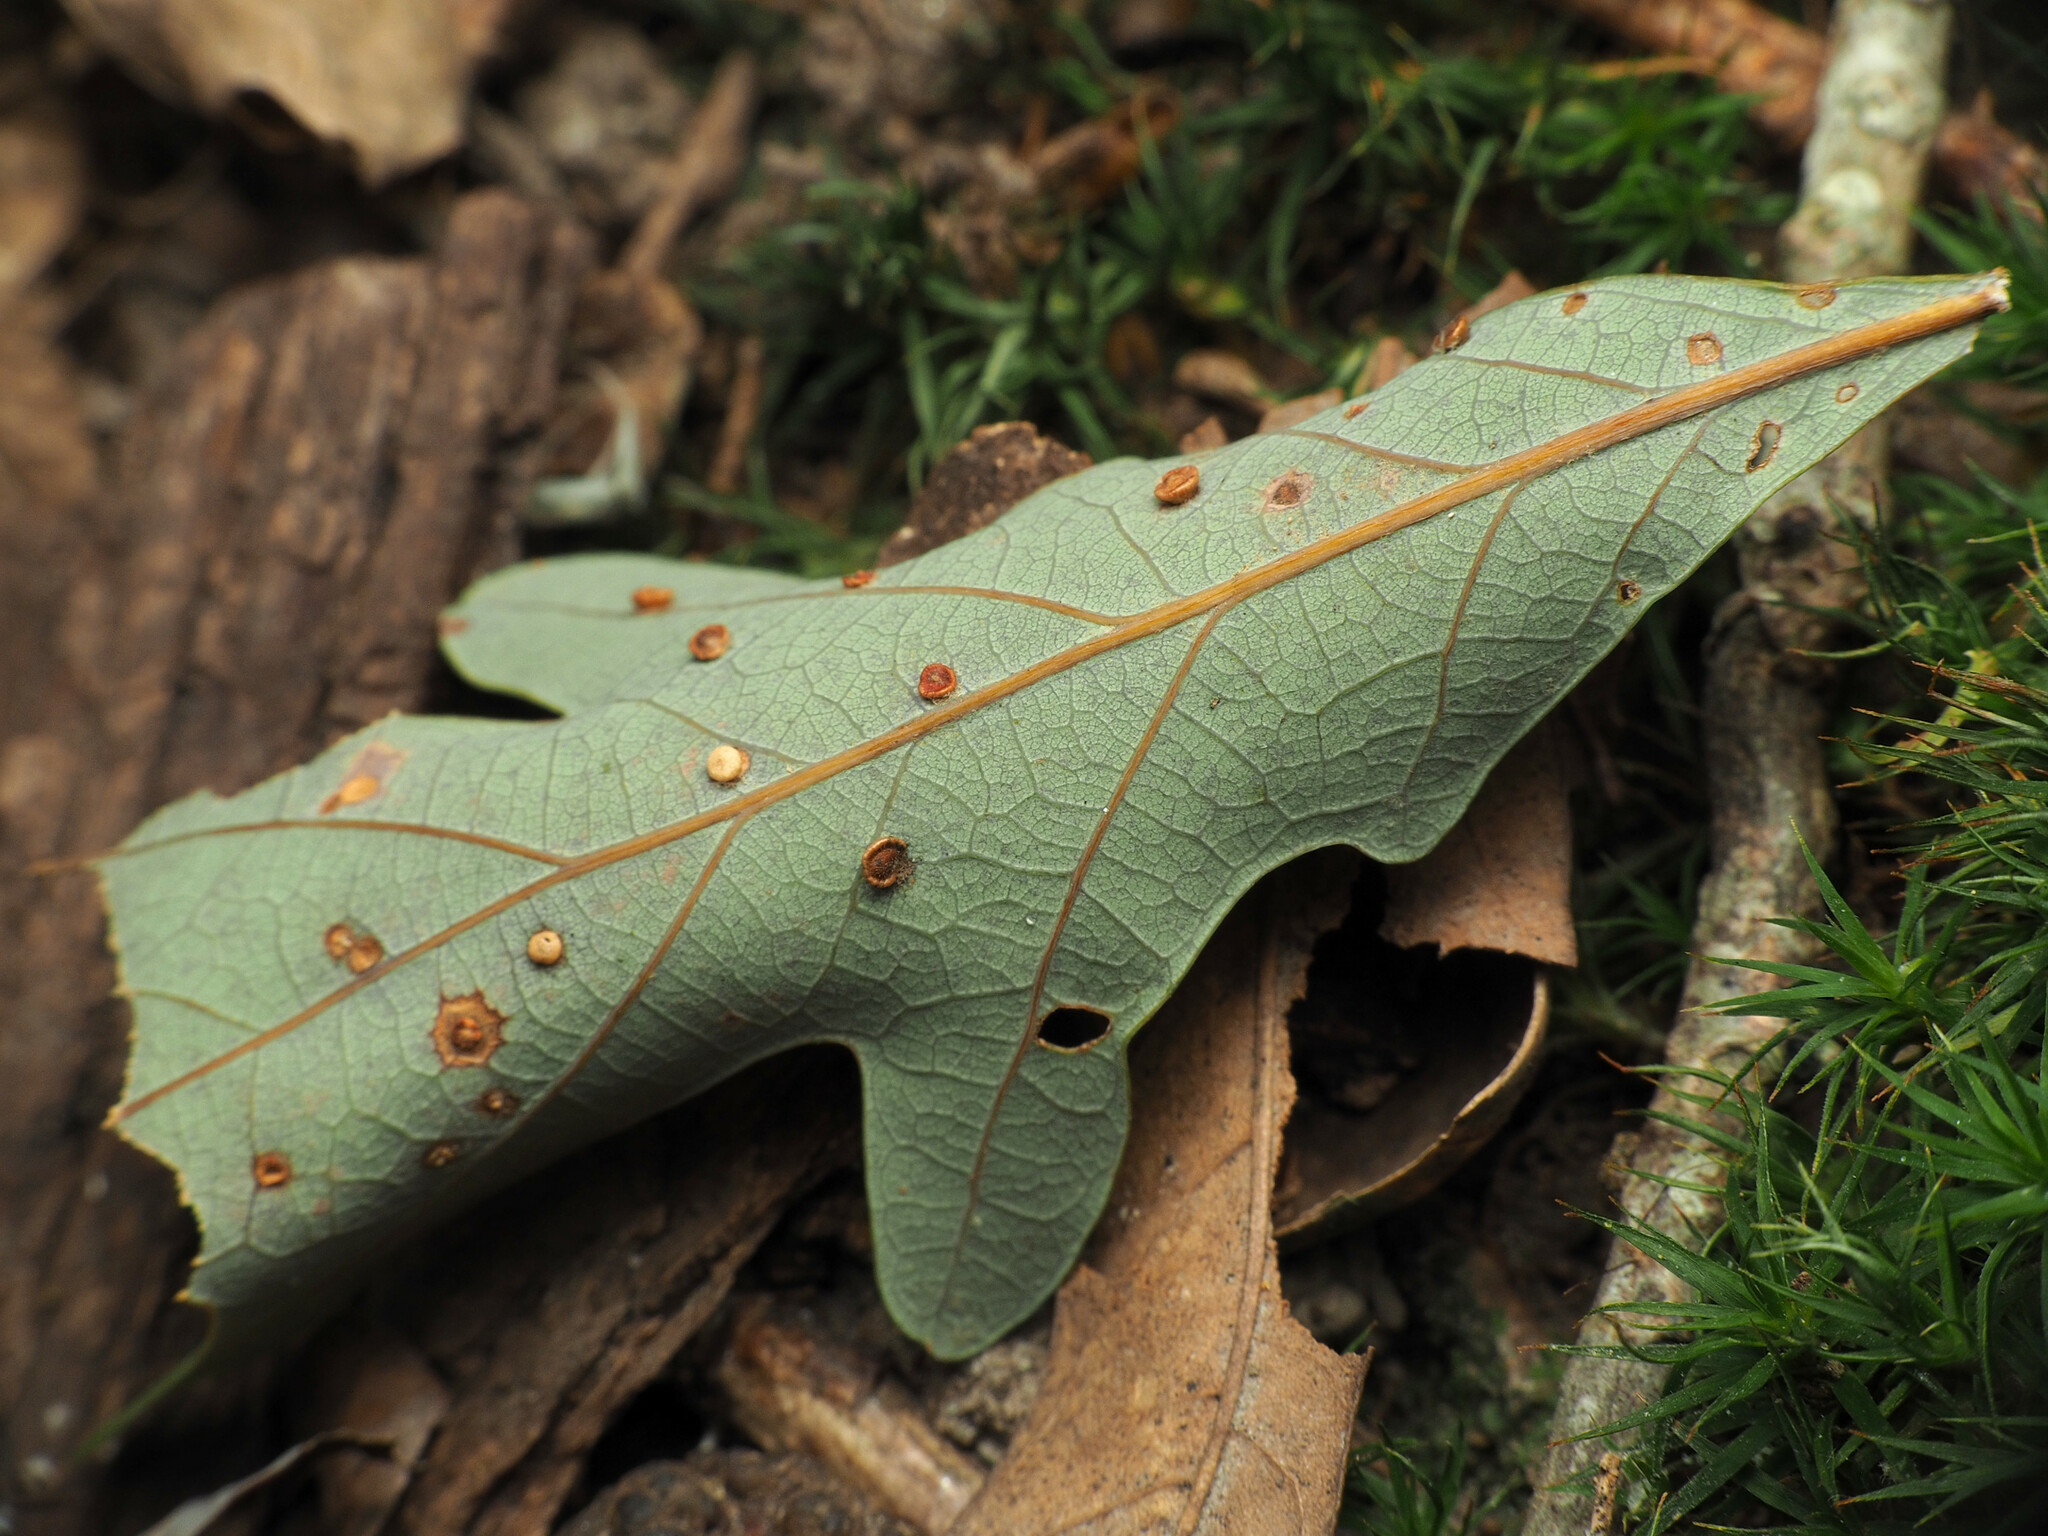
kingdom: Animalia
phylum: Arthropoda
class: Insecta
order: Hymenoptera
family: Cynipidae
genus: Neuroterus
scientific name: Neuroterus
